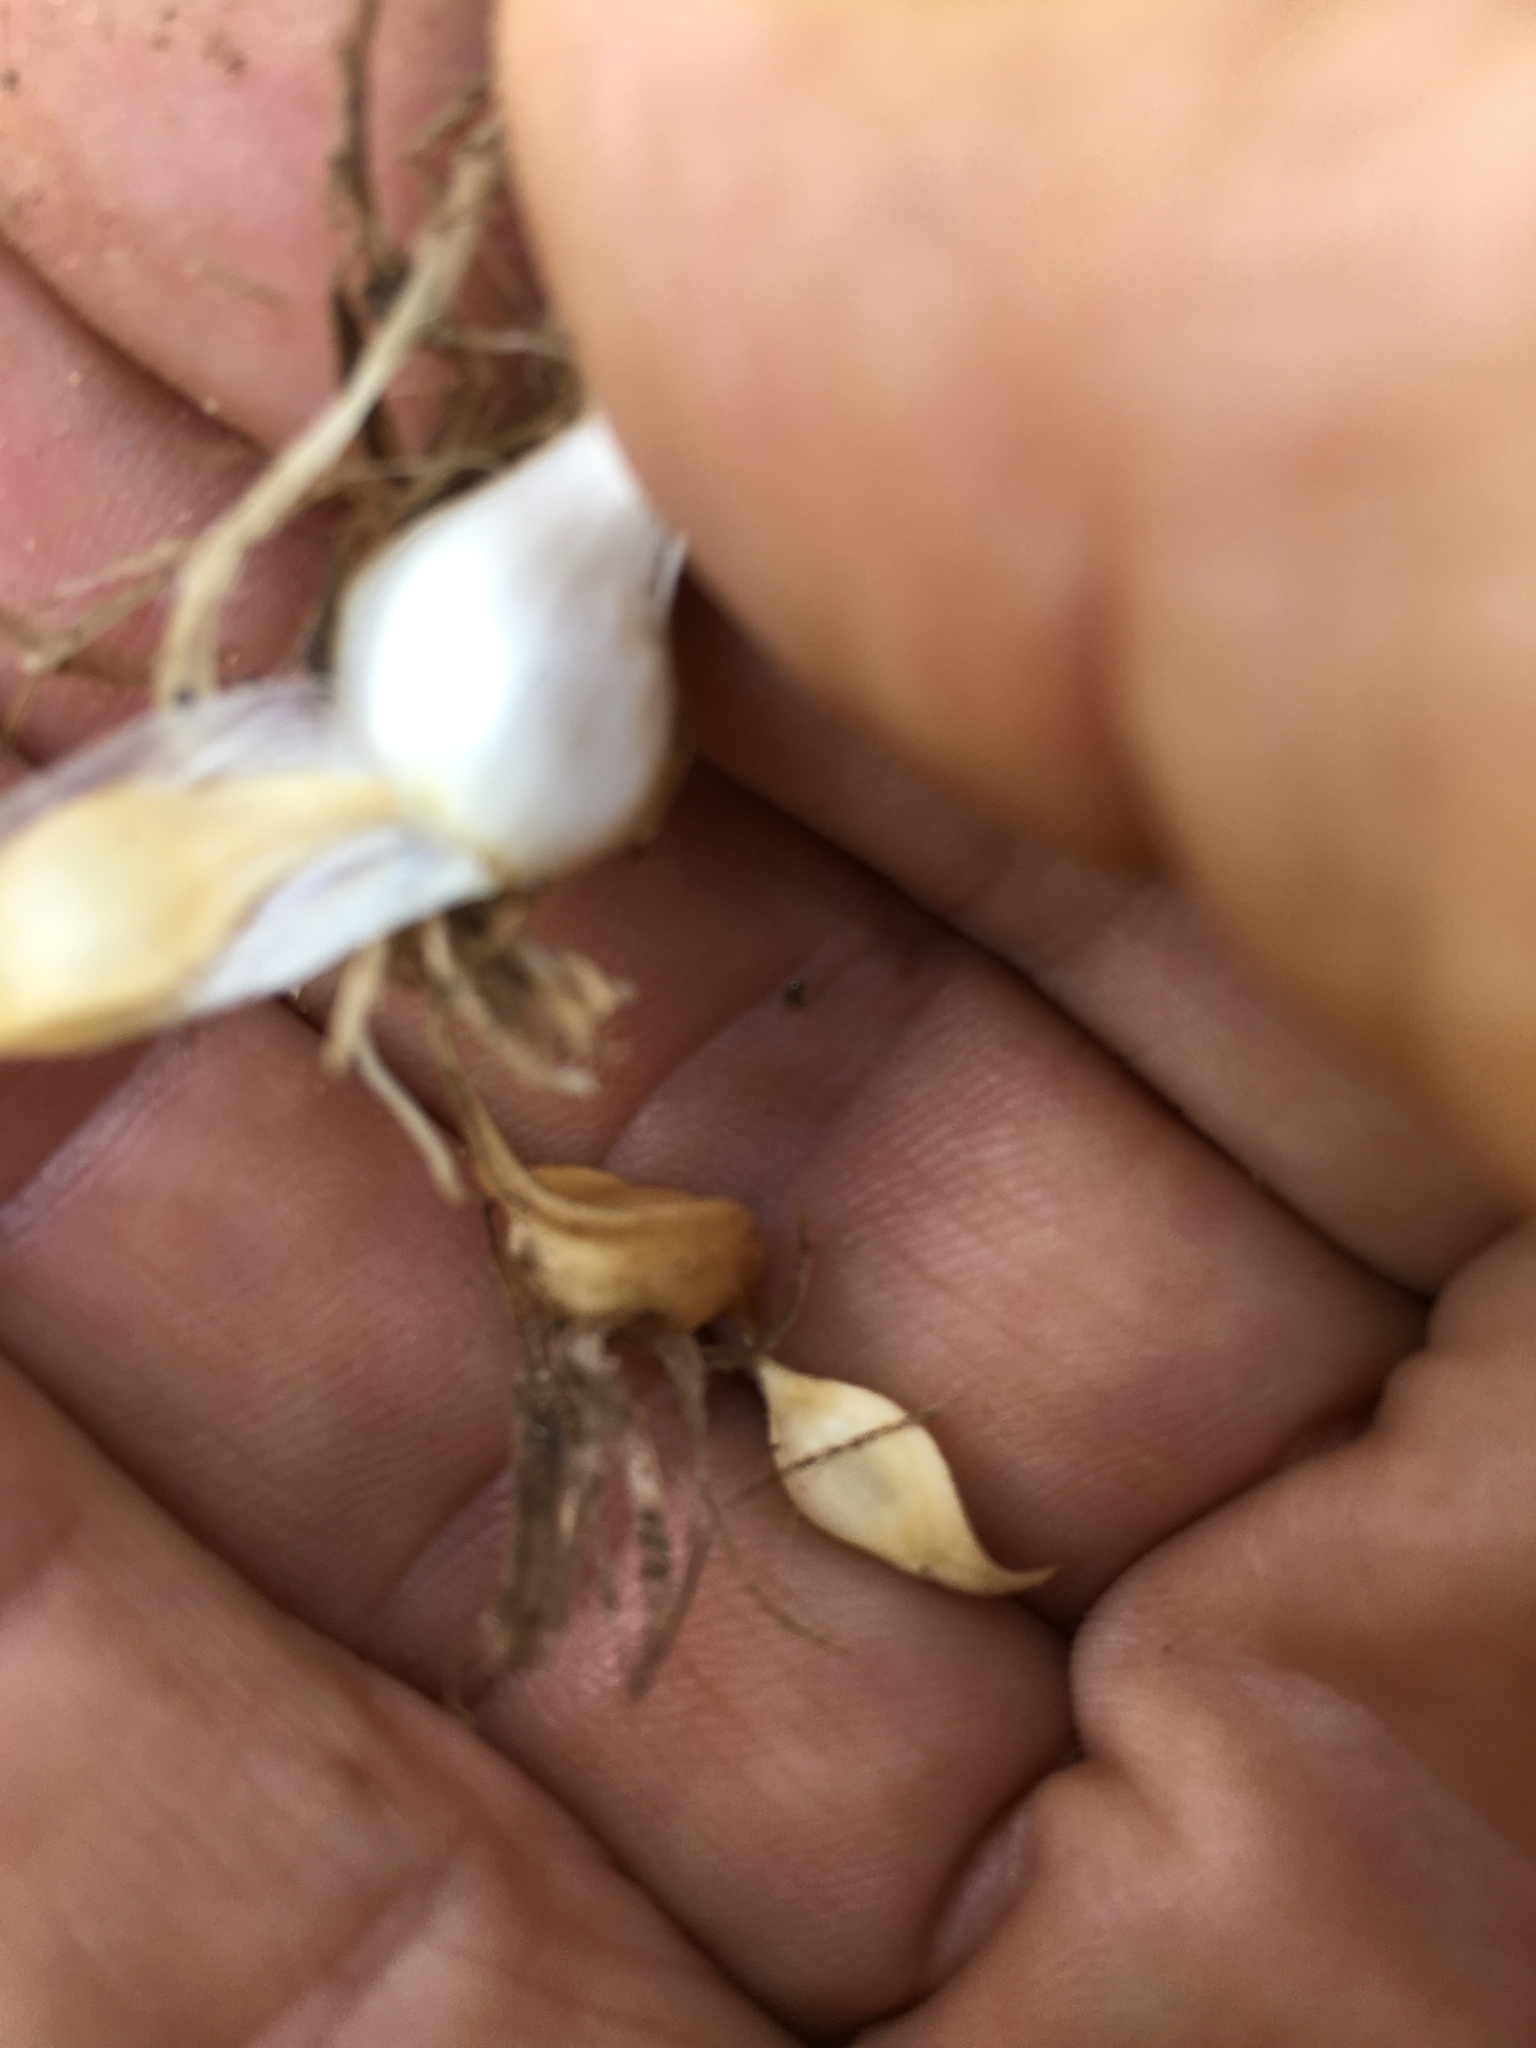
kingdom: Plantae
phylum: Tracheophyta
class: Liliopsida
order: Asparagales
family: Amaryllidaceae
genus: Allium
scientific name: Allium vineale
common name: Crow garlic
